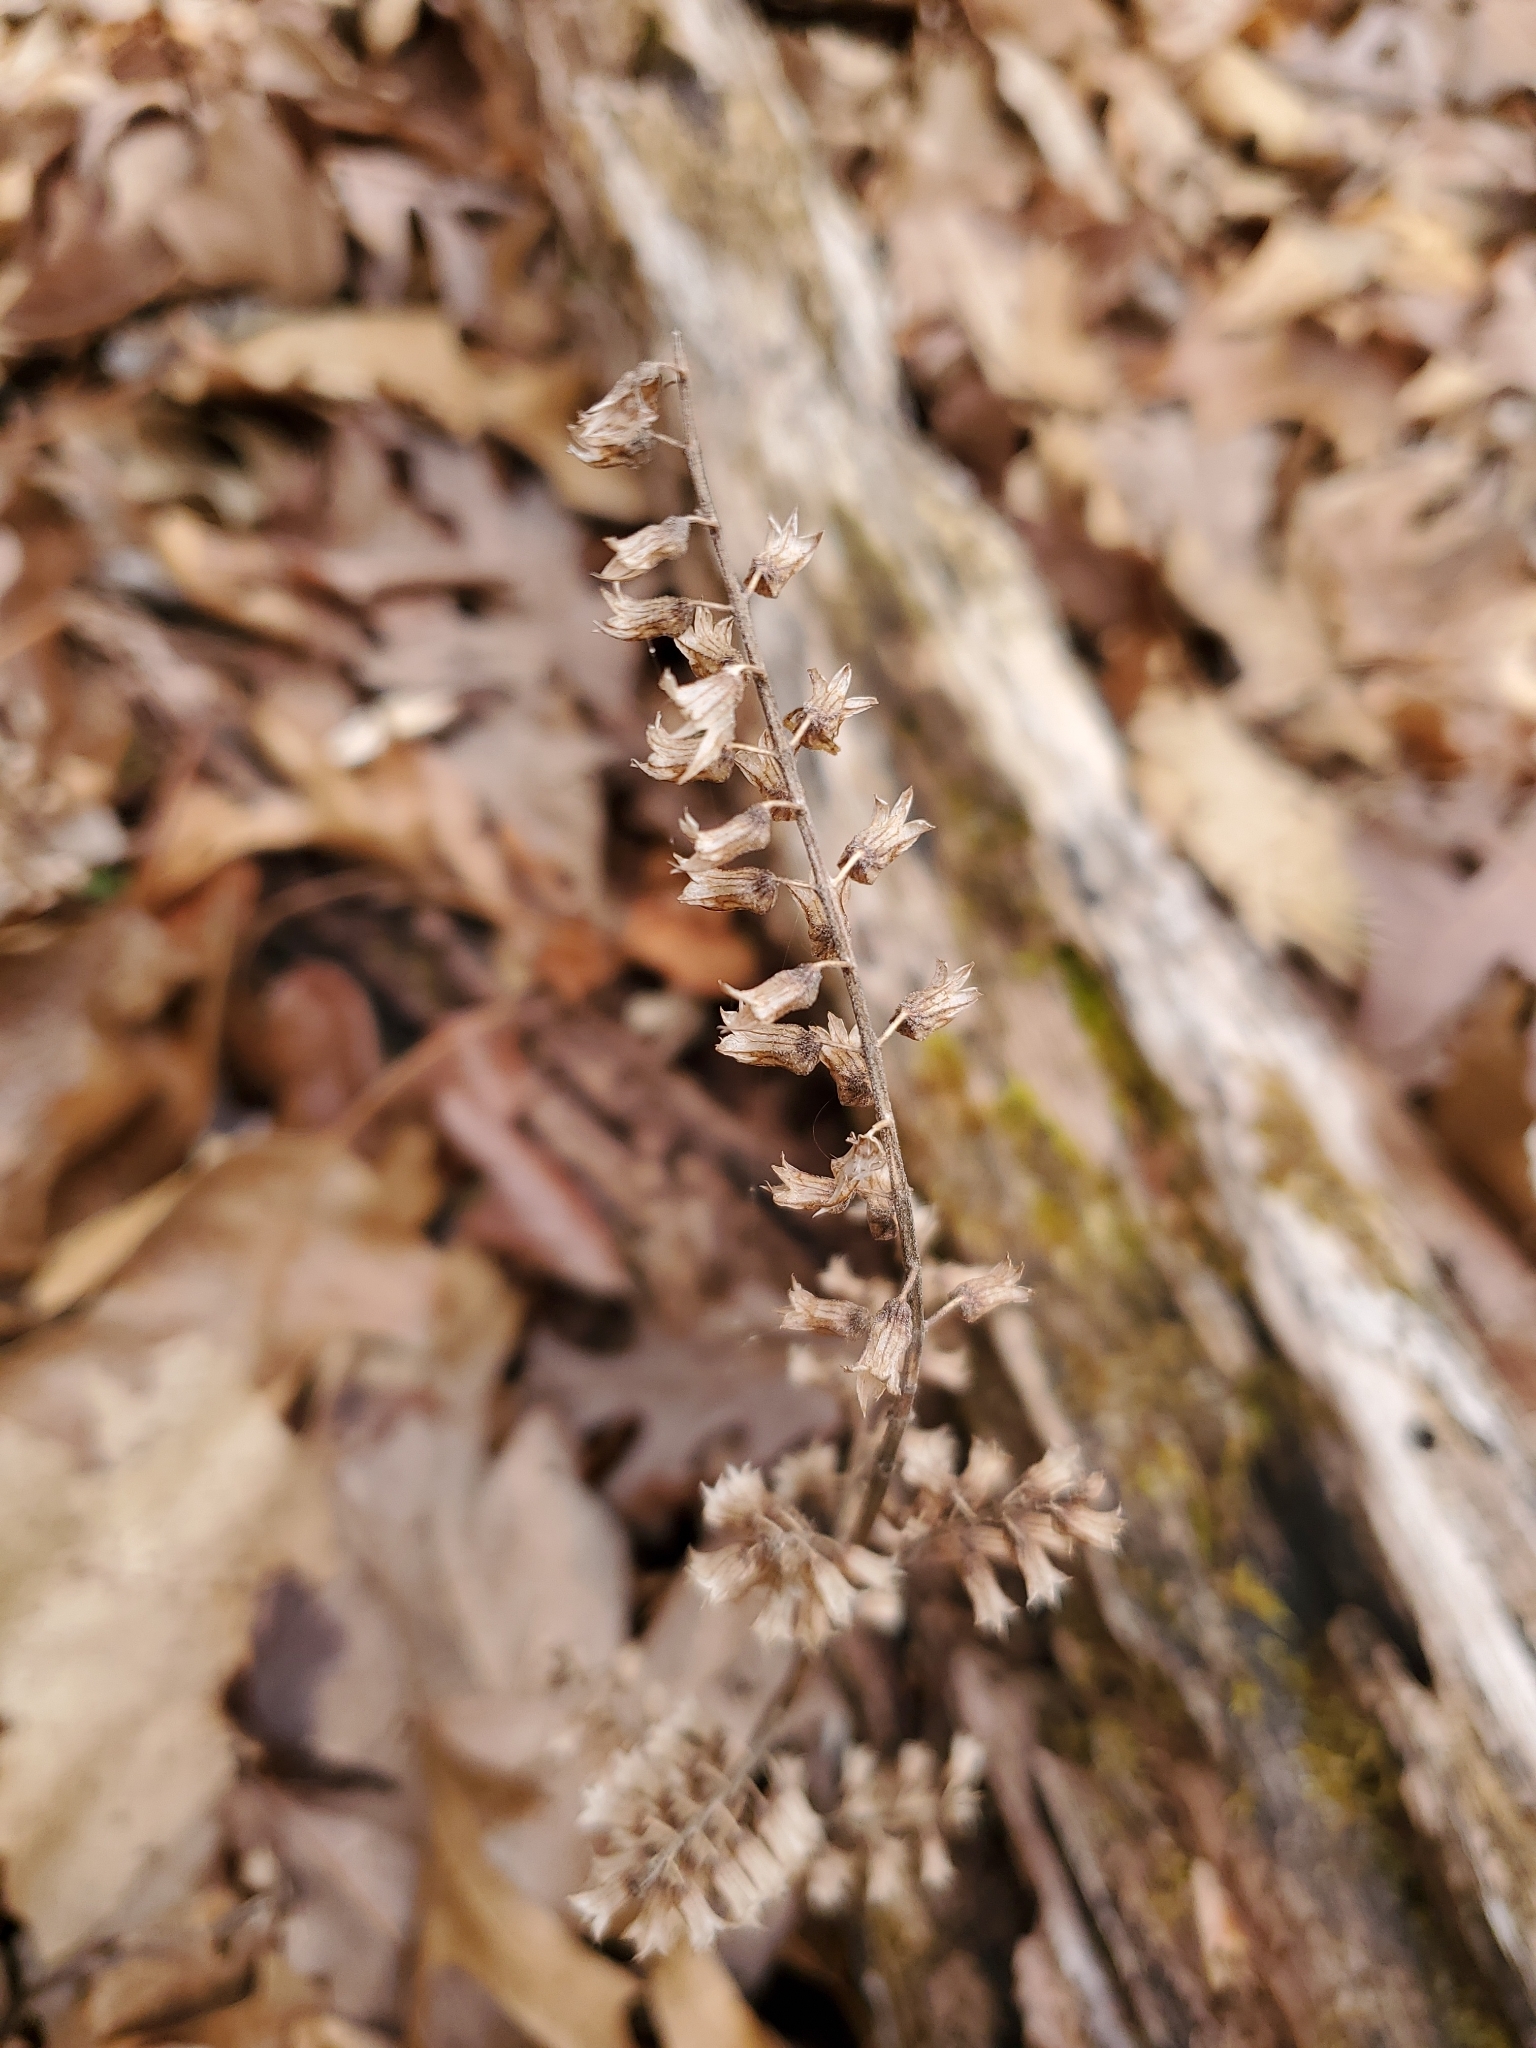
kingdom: Plantae
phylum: Tracheophyta
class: Magnoliopsida
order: Lamiales
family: Lamiaceae
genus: Perilla
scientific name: Perilla frutescens
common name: Perilla
